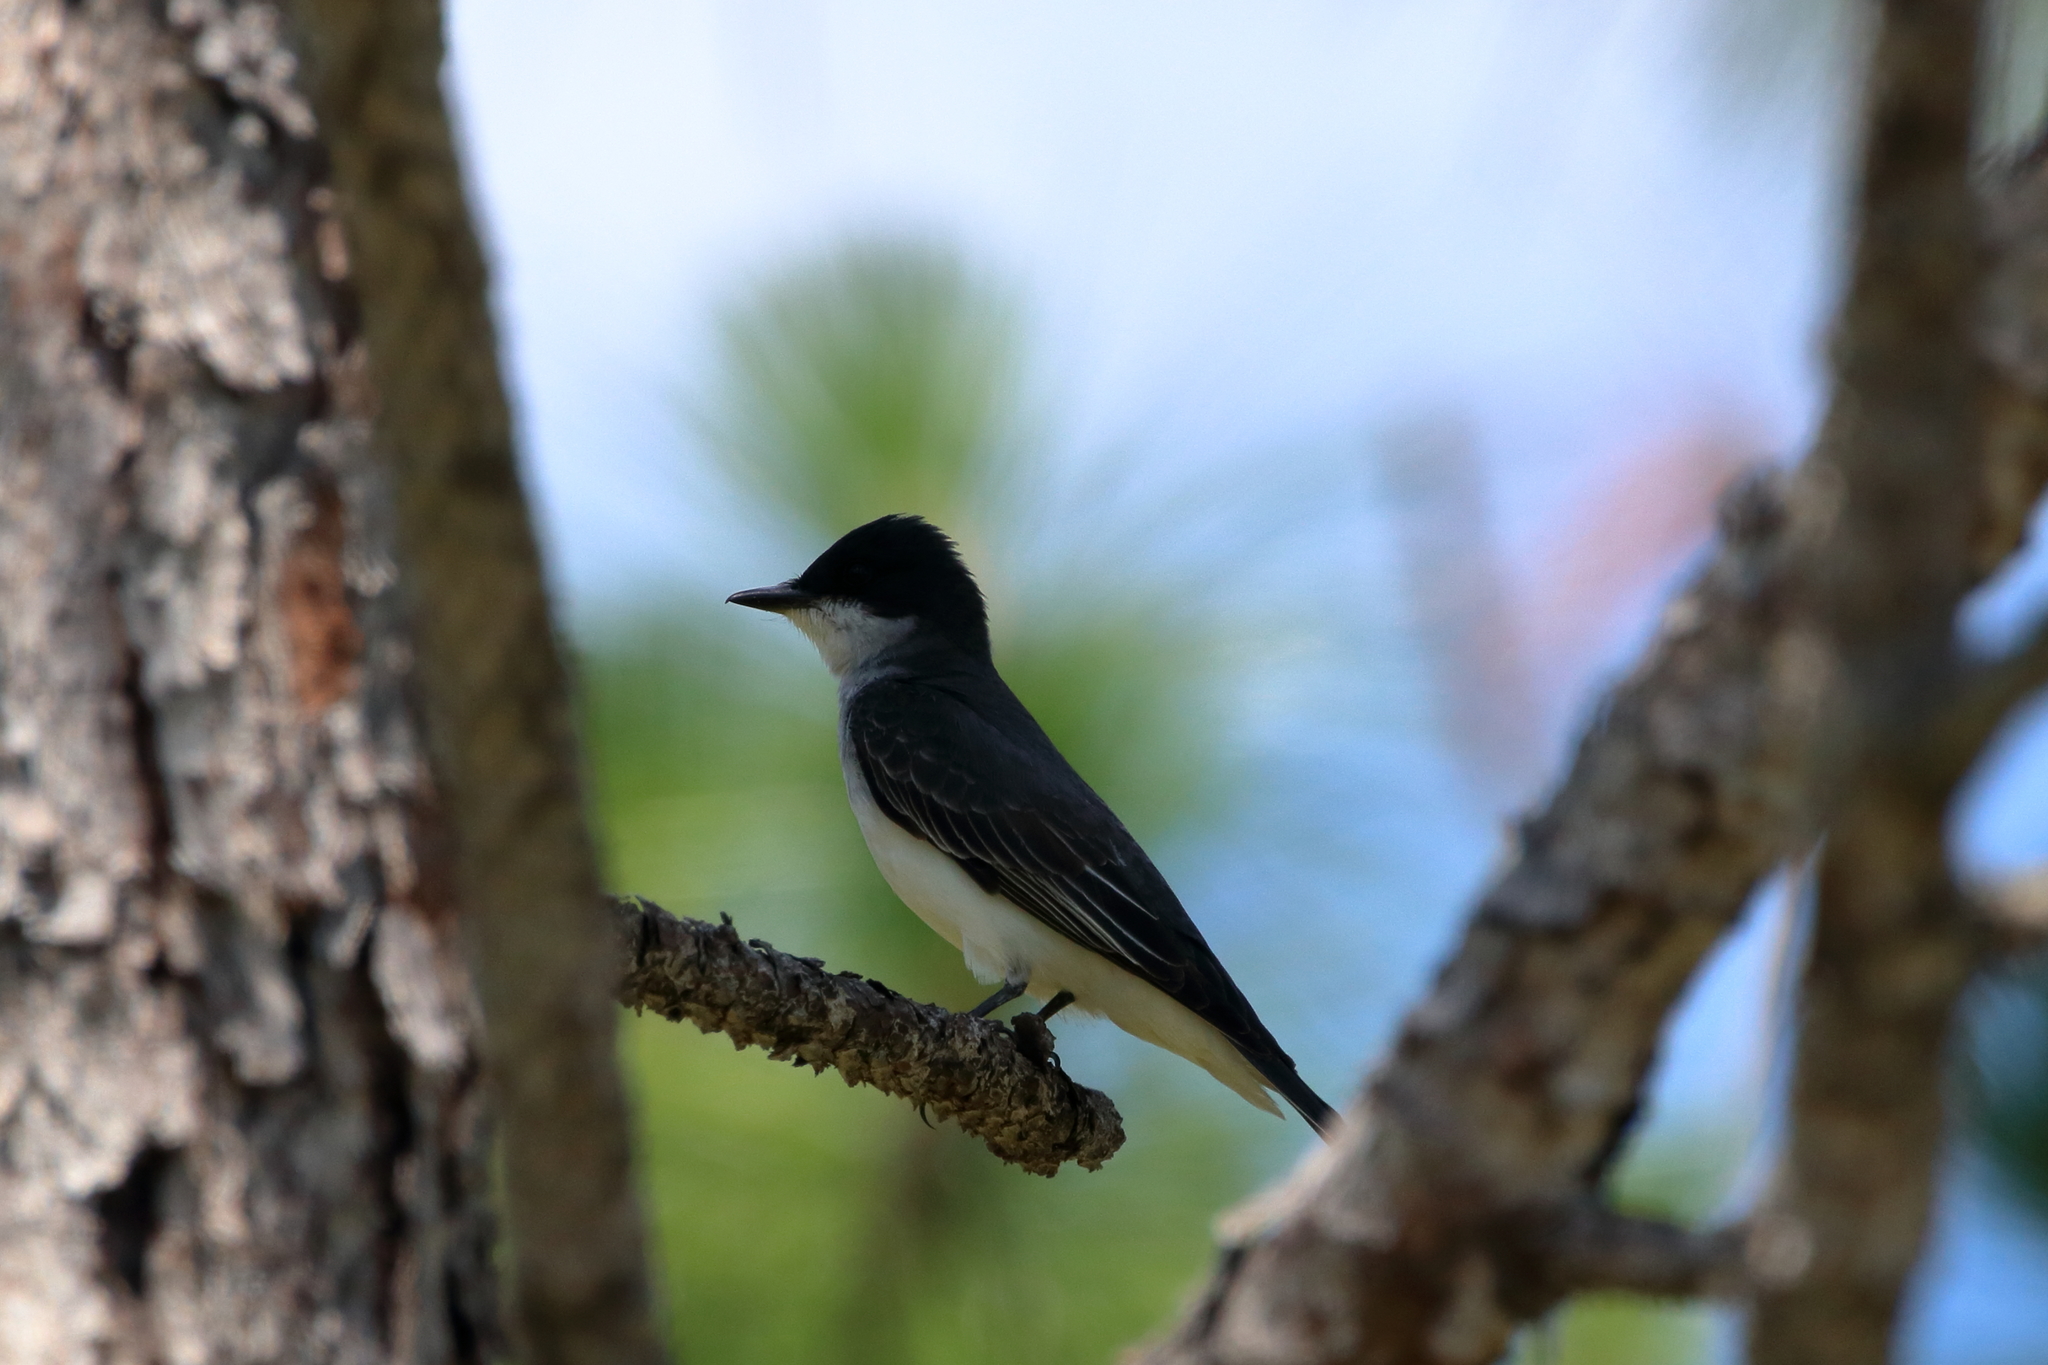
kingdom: Animalia
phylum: Chordata
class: Aves
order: Passeriformes
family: Tyrannidae
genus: Tyrannus
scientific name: Tyrannus tyrannus
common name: Eastern kingbird
